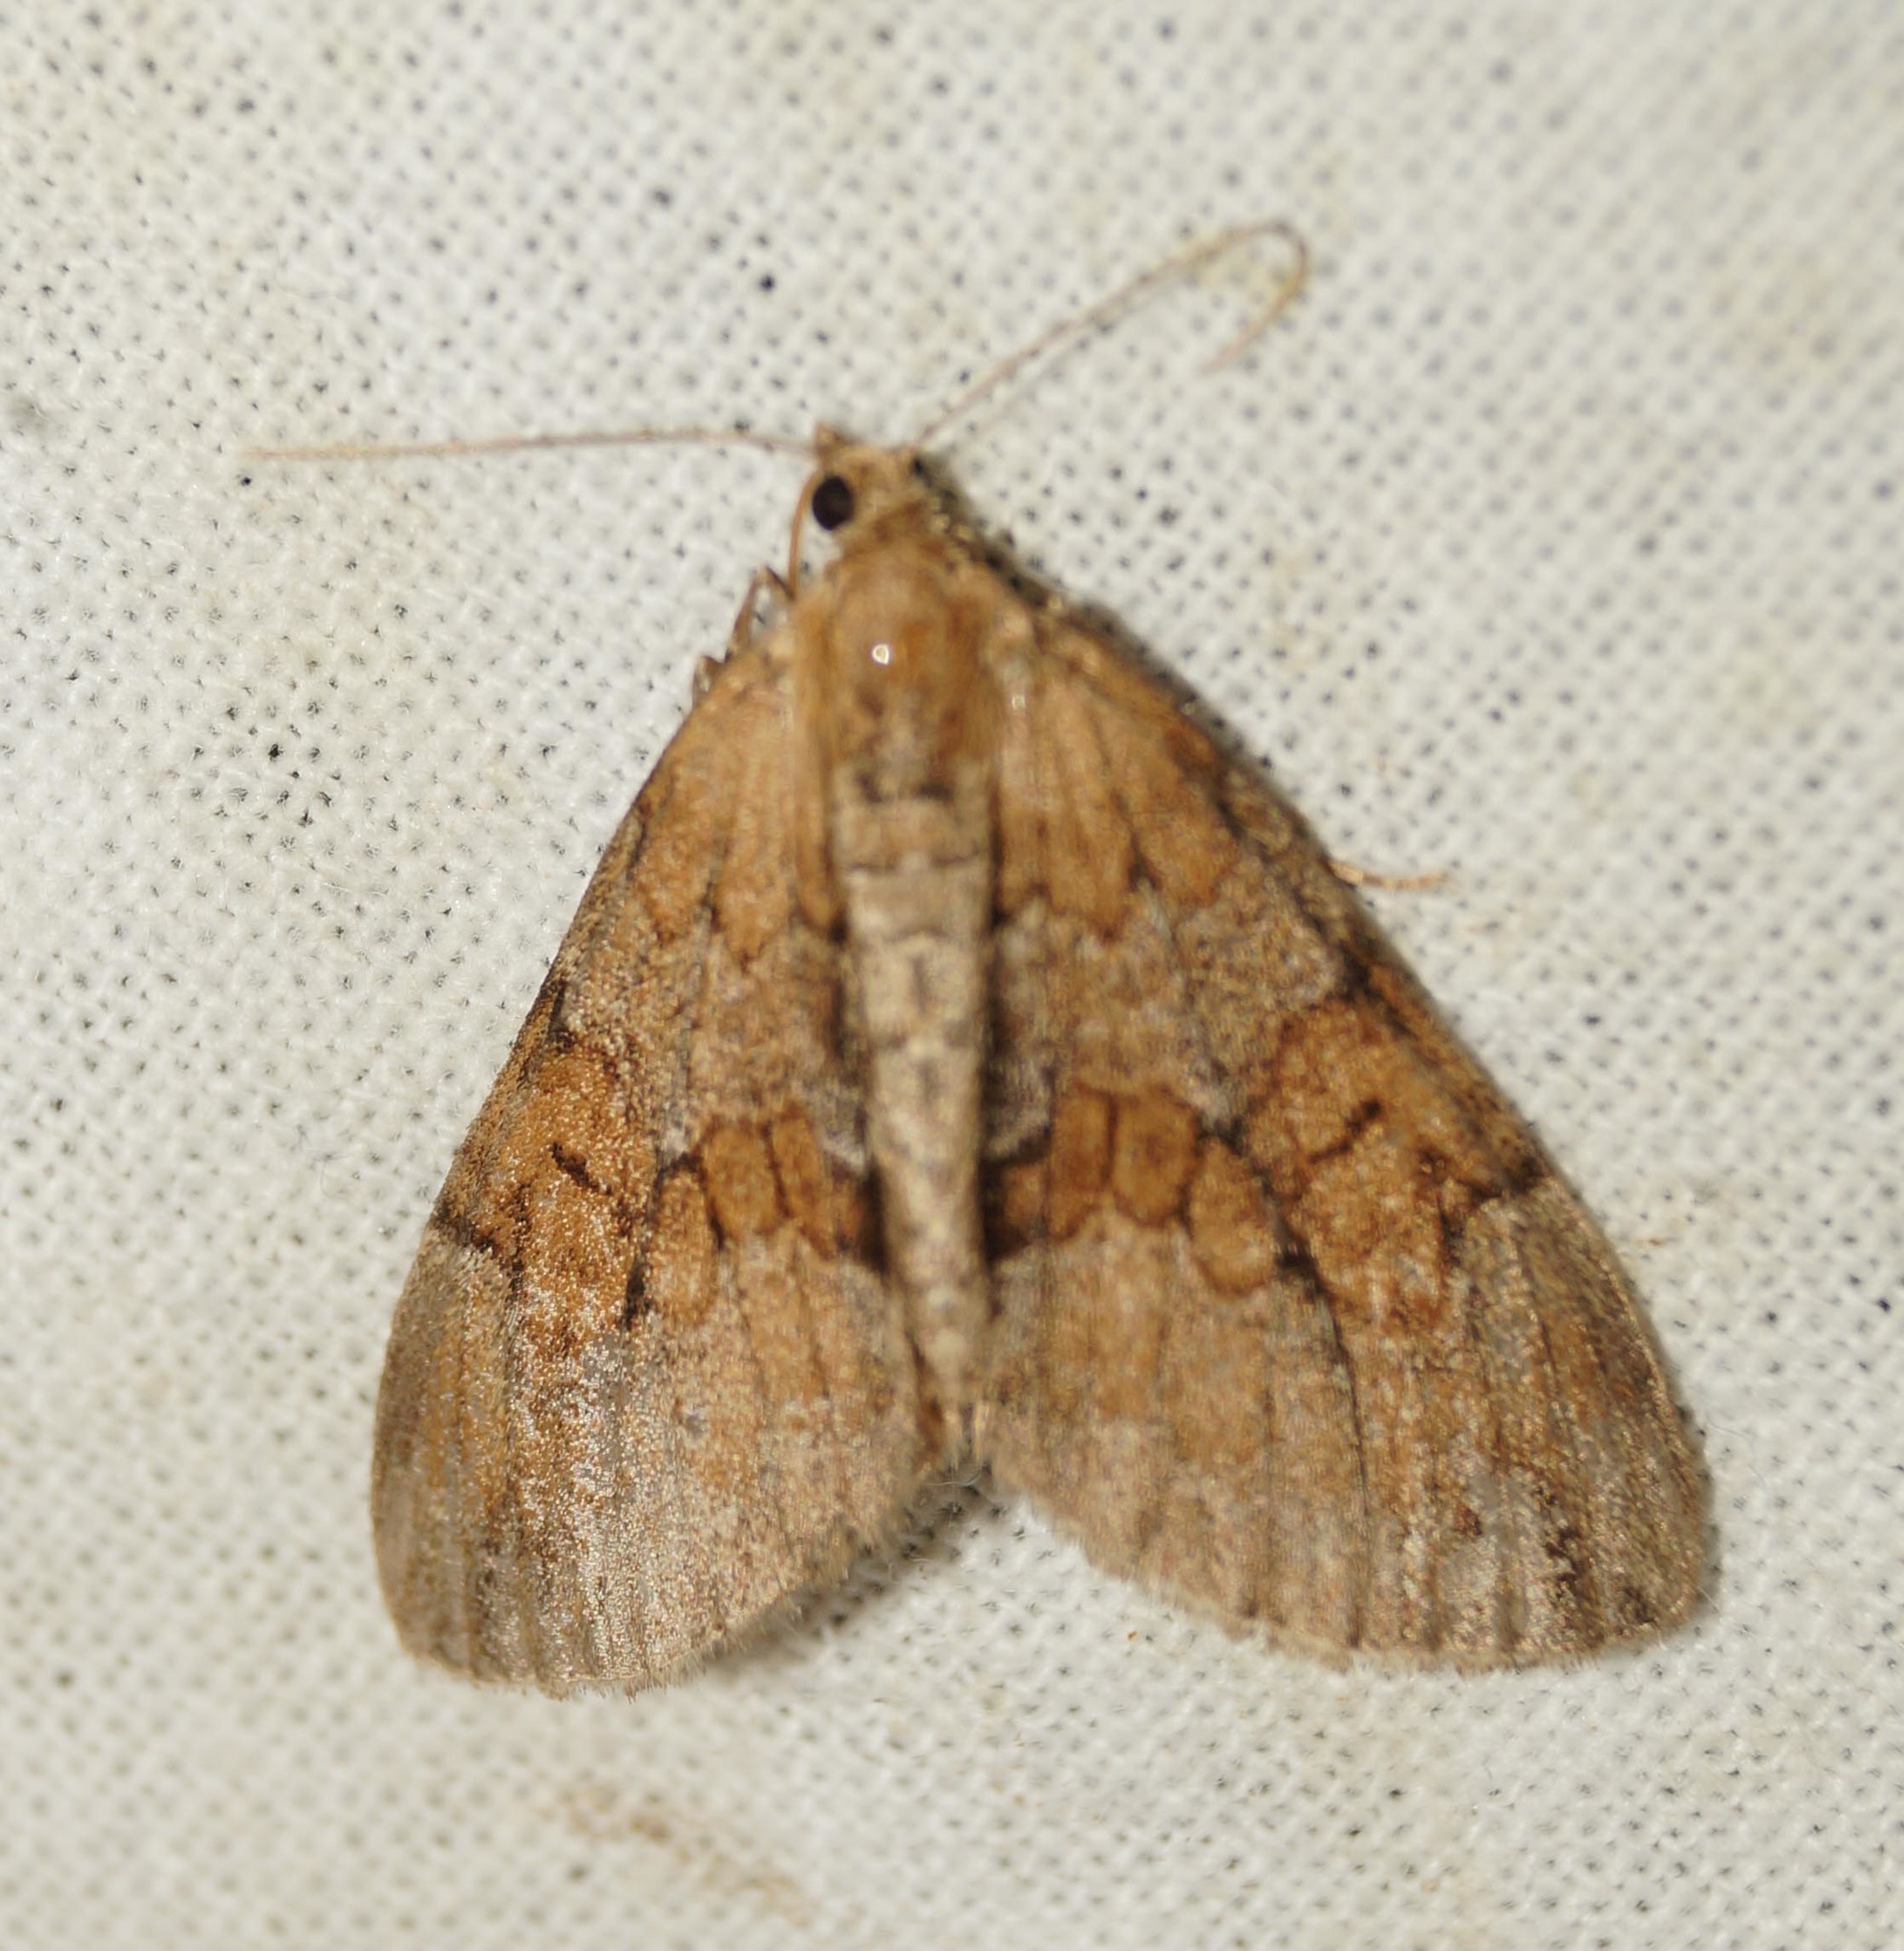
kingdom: Animalia
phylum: Arthropoda
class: Insecta
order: Lepidoptera
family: Geometridae
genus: Thera
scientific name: Thera obeliscata
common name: Grey pine carpet
